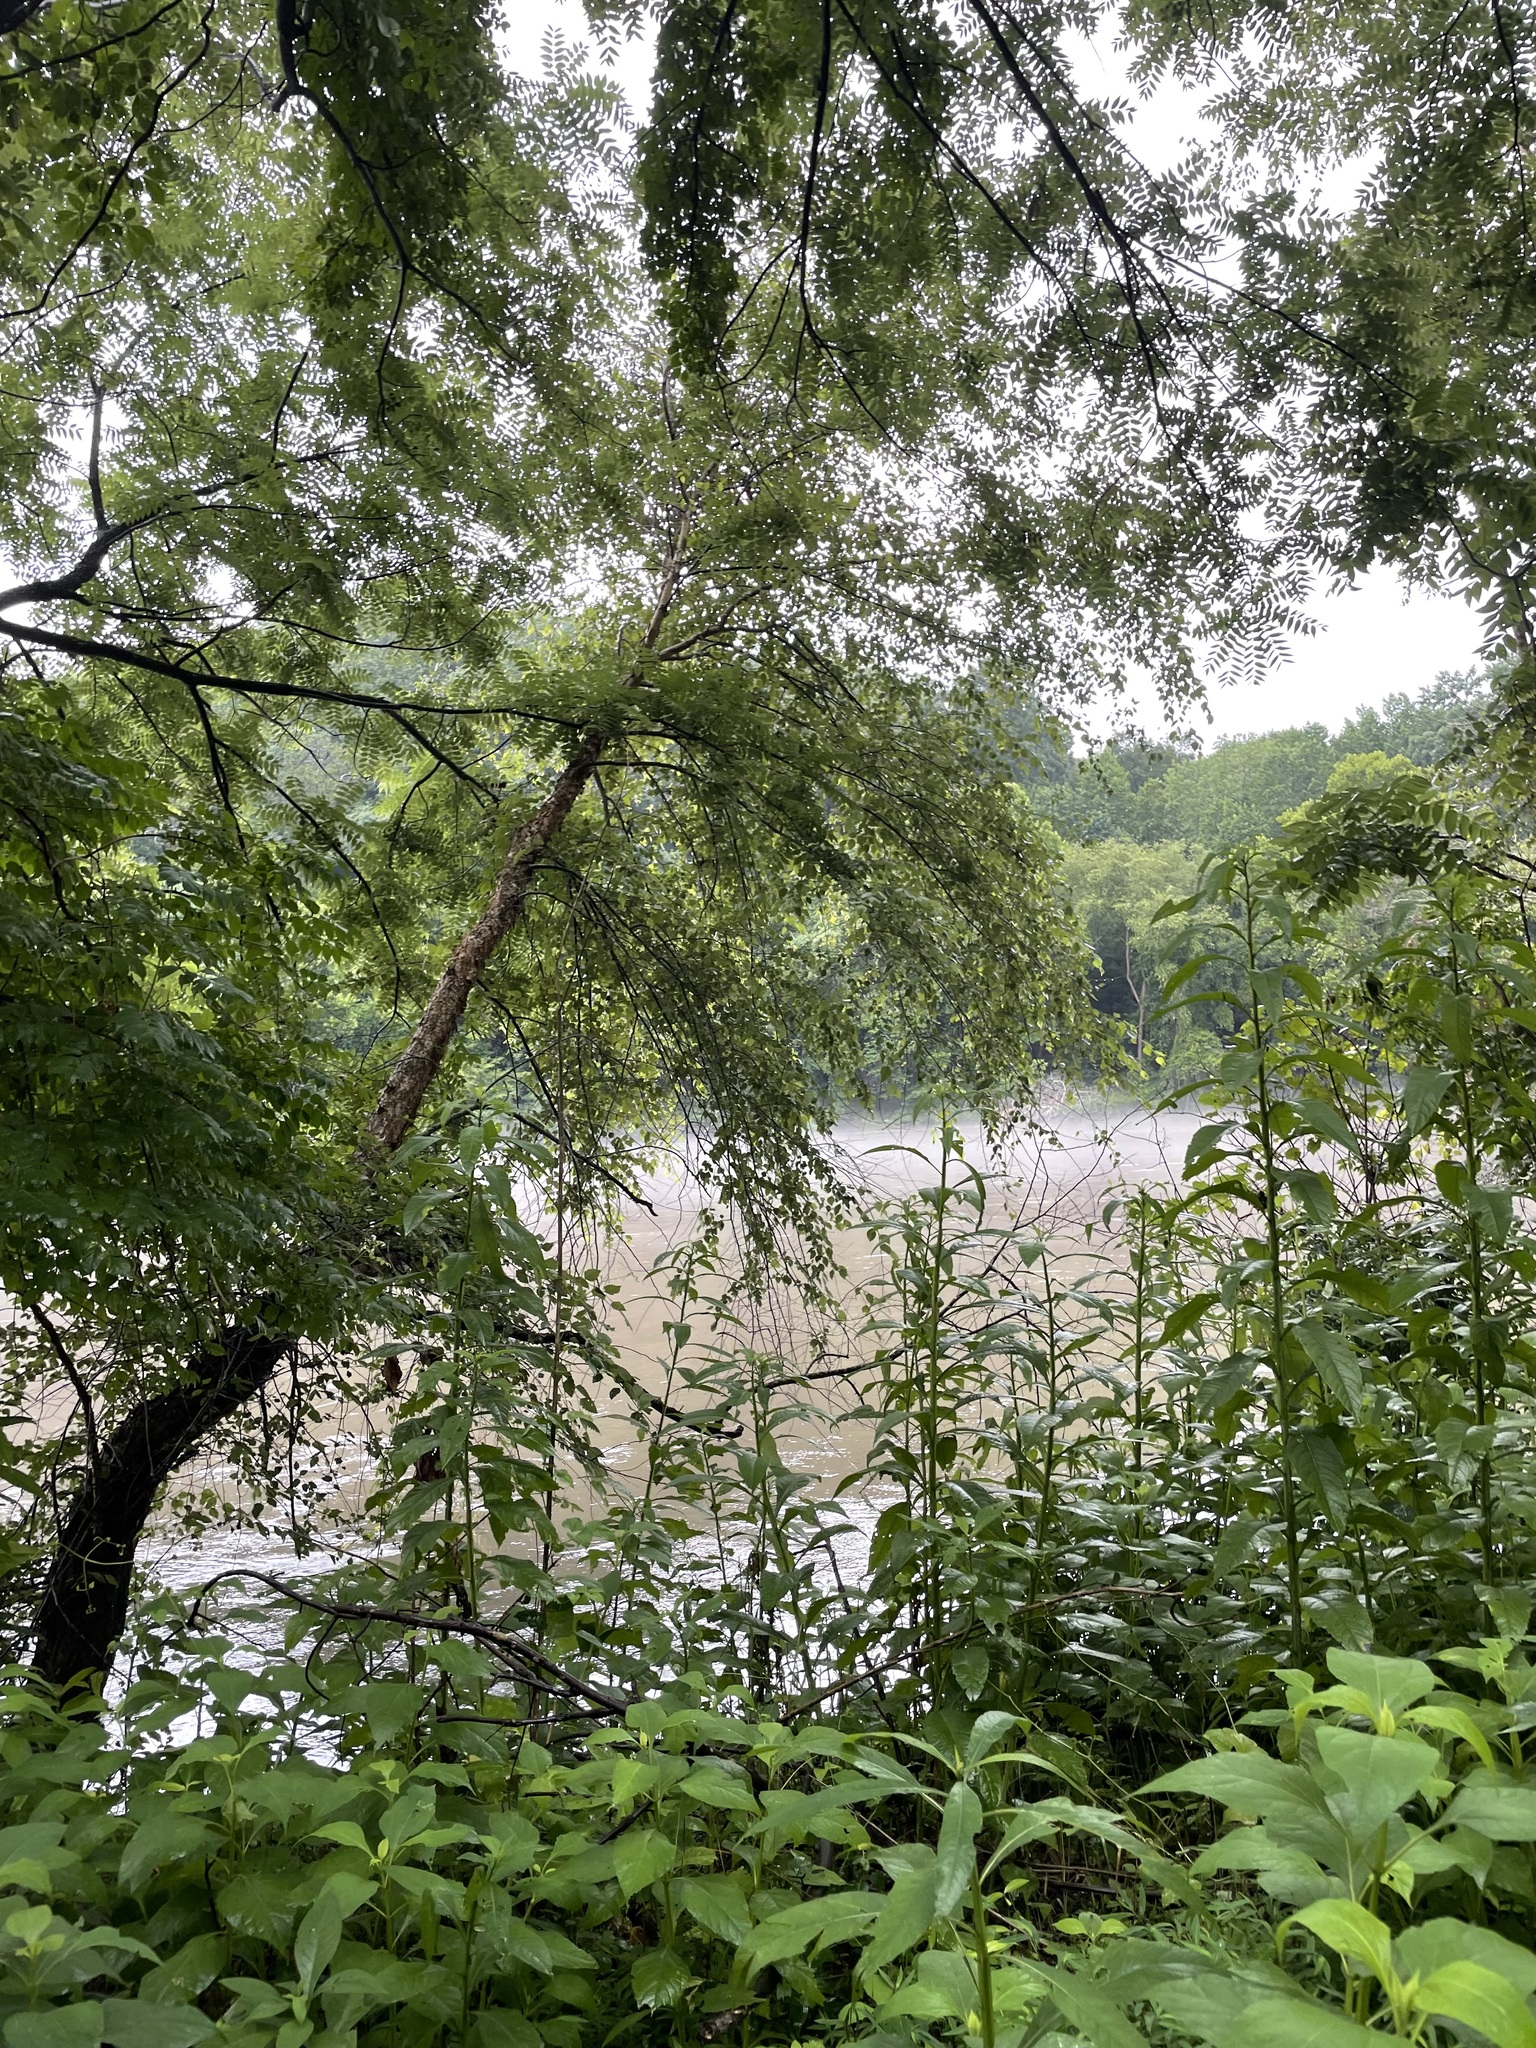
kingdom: Plantae
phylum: Tracheophyta
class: Magnoliopsida
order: Fagales
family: Betulaceae
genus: Betula
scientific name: Betula nigra
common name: Black birch
